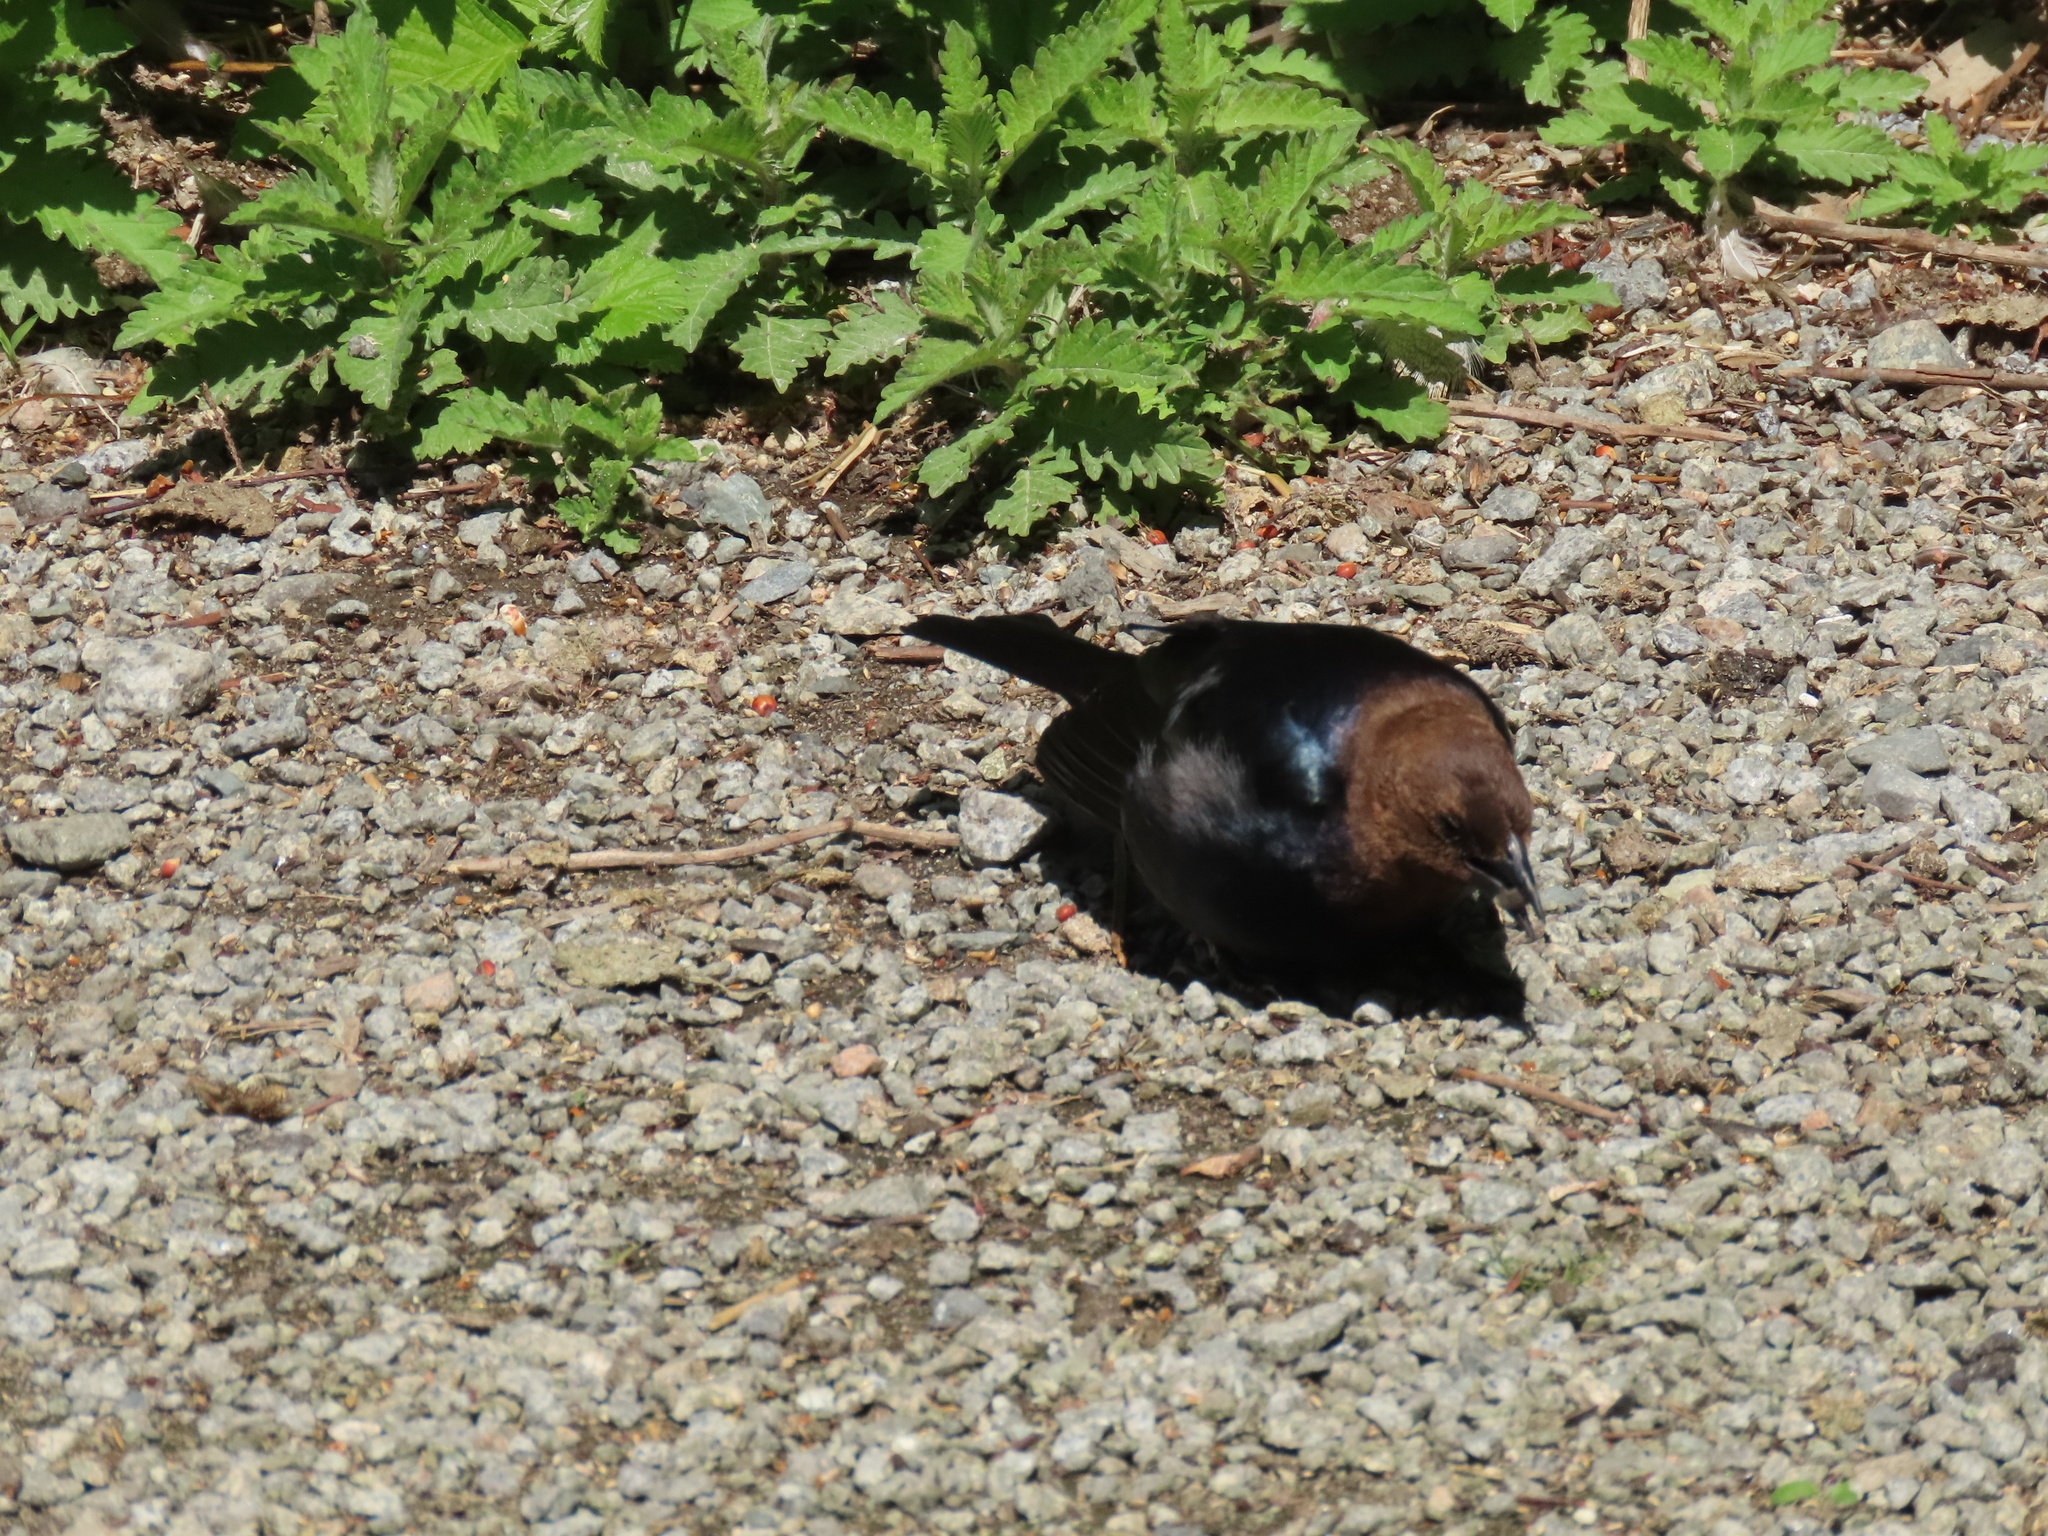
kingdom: Animalia
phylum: Chordata
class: Aves
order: Passeriformes
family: Icteridae
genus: Molothrus
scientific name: Molothrus ater
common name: Brown-headed cowbird
